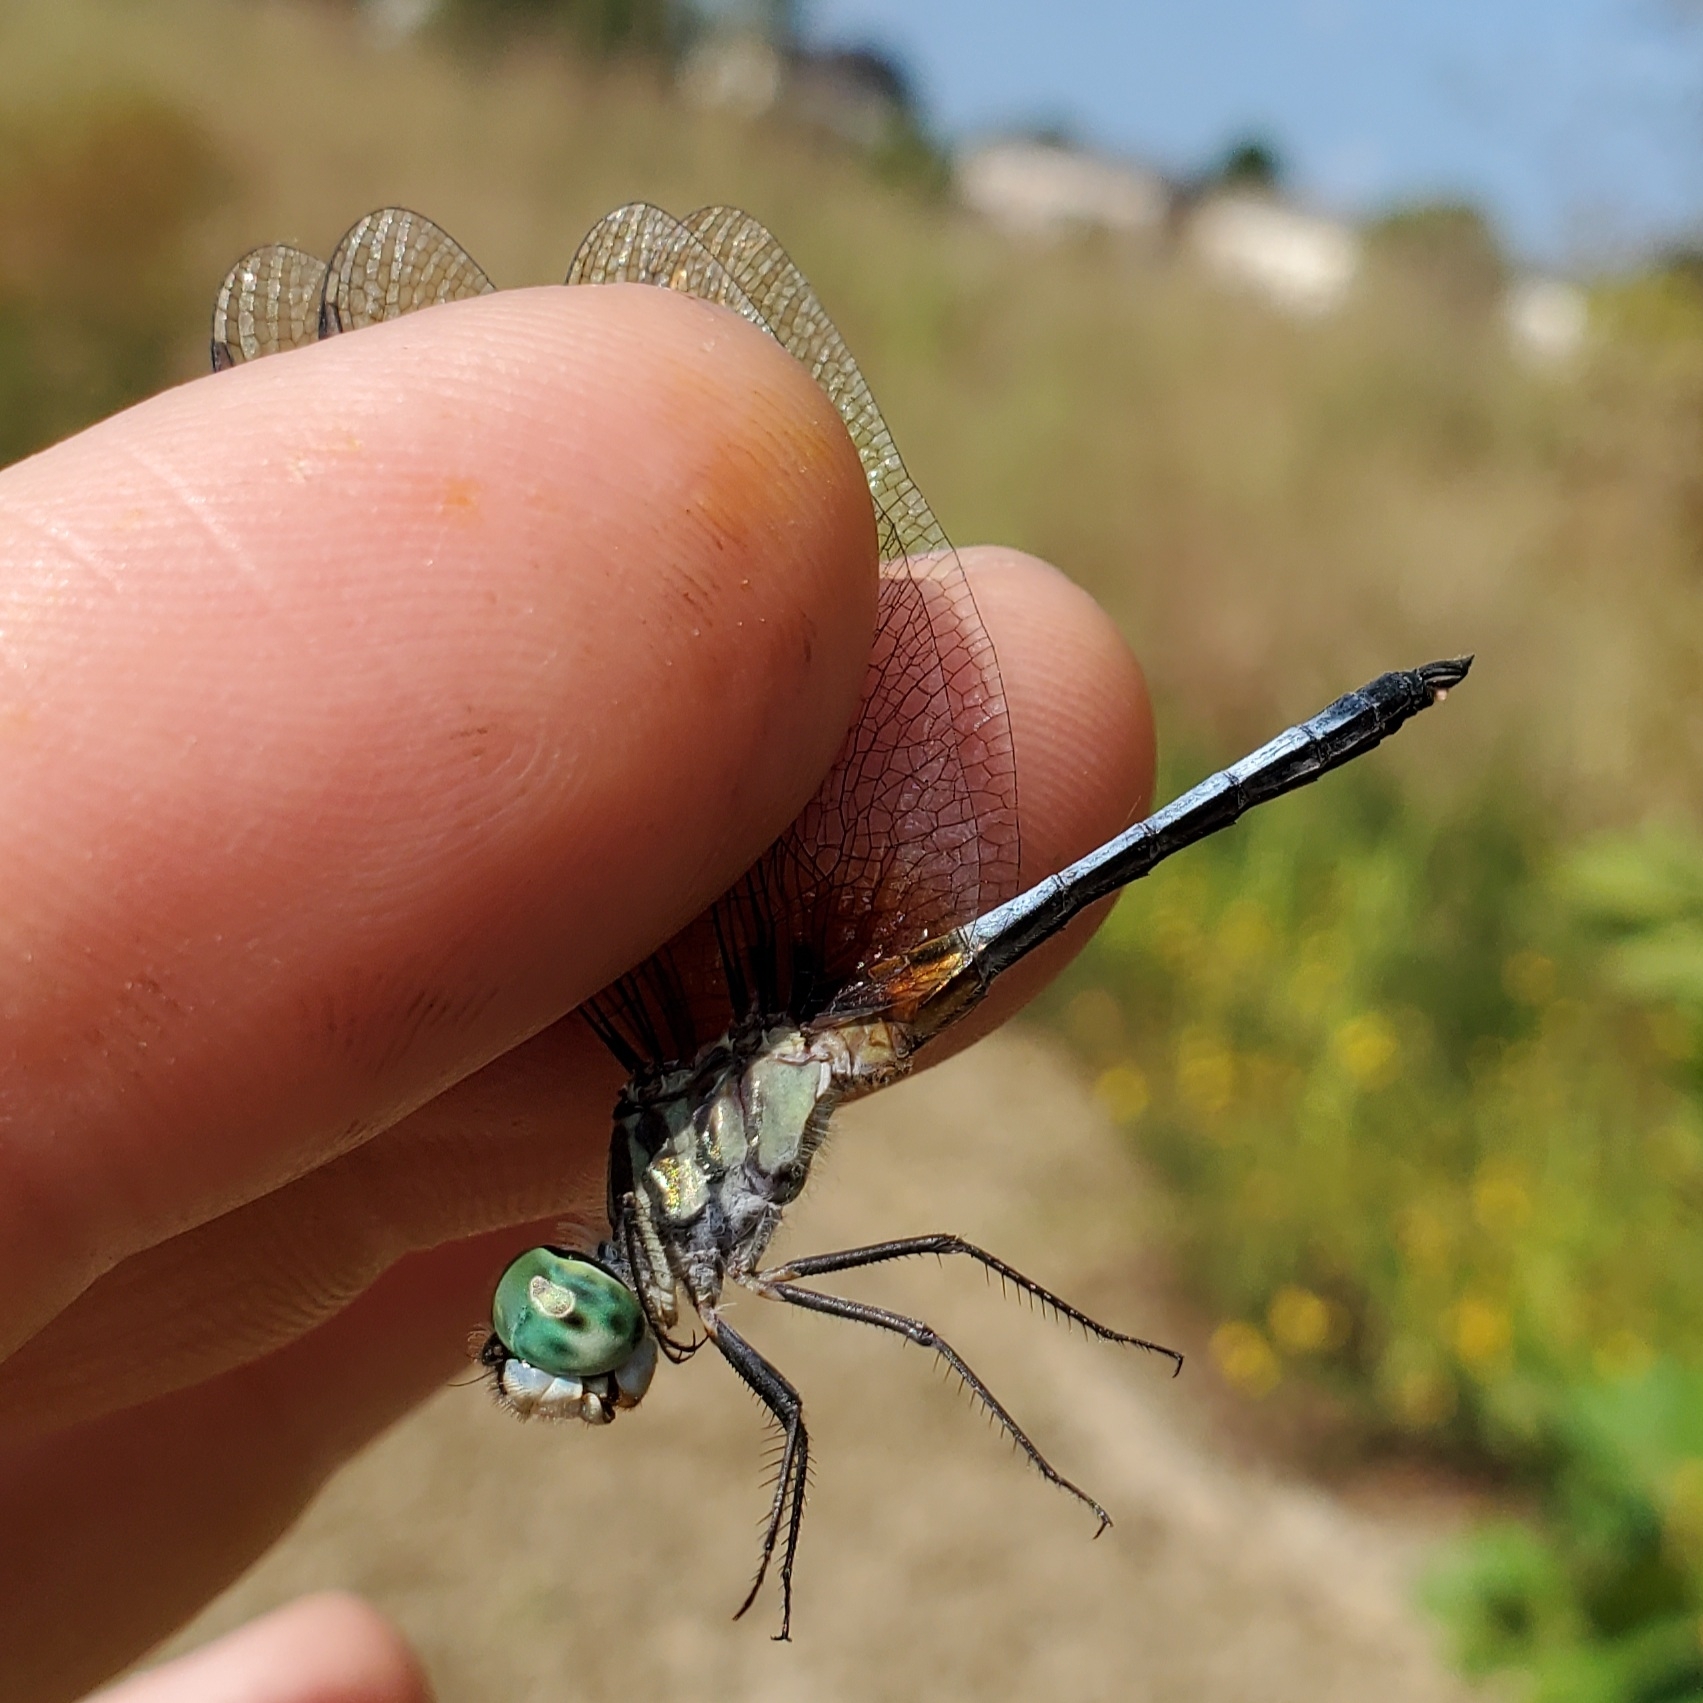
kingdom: Animalia
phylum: Arthropoda
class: Insecta
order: Odonata
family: Libellulidae
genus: Pachydiplax
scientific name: Pachydiplax longipennis
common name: Blue dasher
